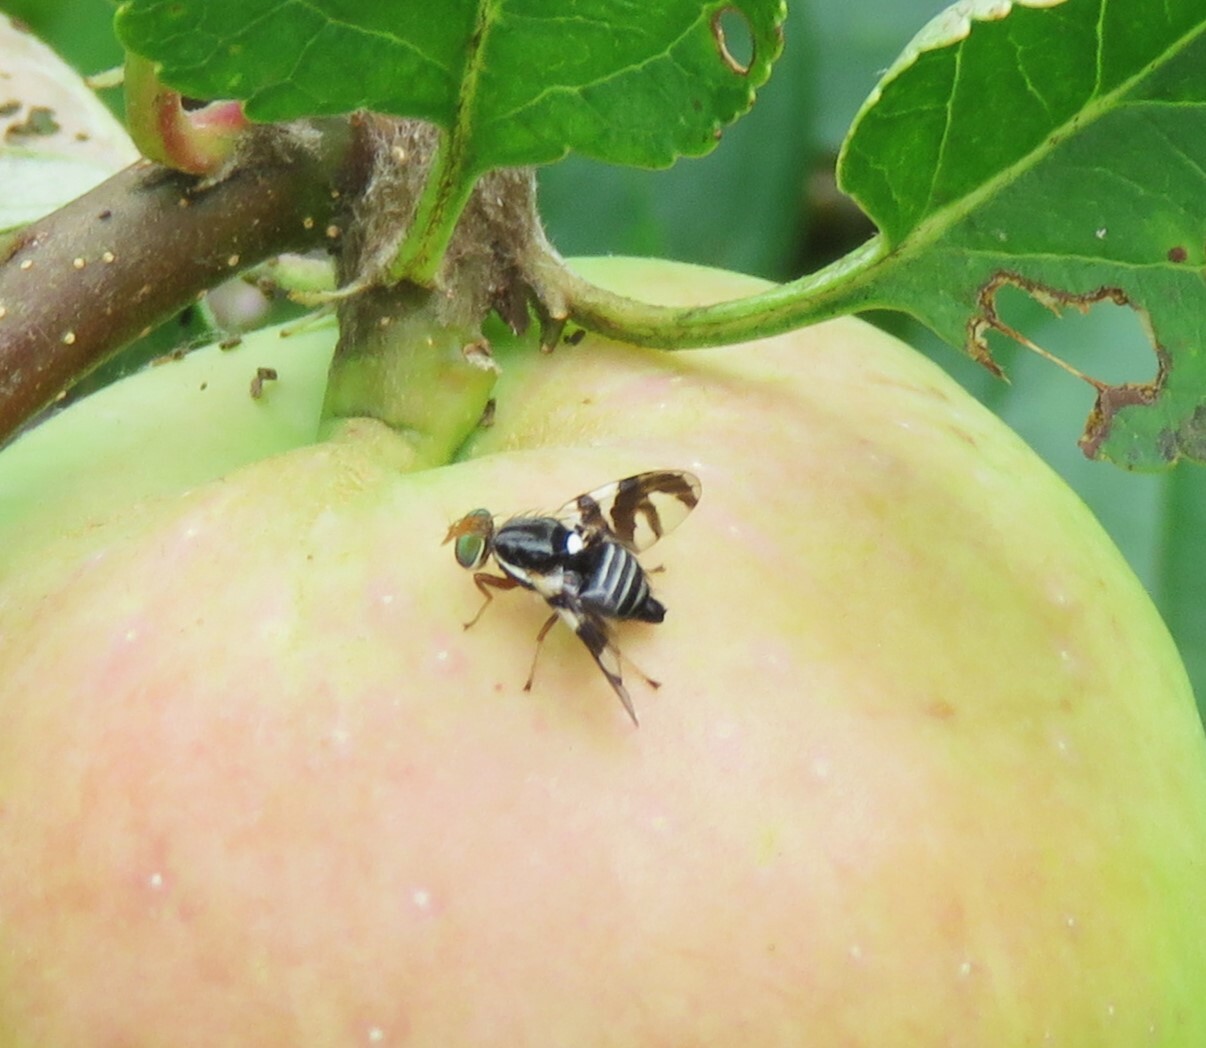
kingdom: Animalia
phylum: Arthropoda
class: Insecta
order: Diptera
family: Tephritidae
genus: Rhagoletis
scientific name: Rhagoletis pomonella
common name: Apple maggot
